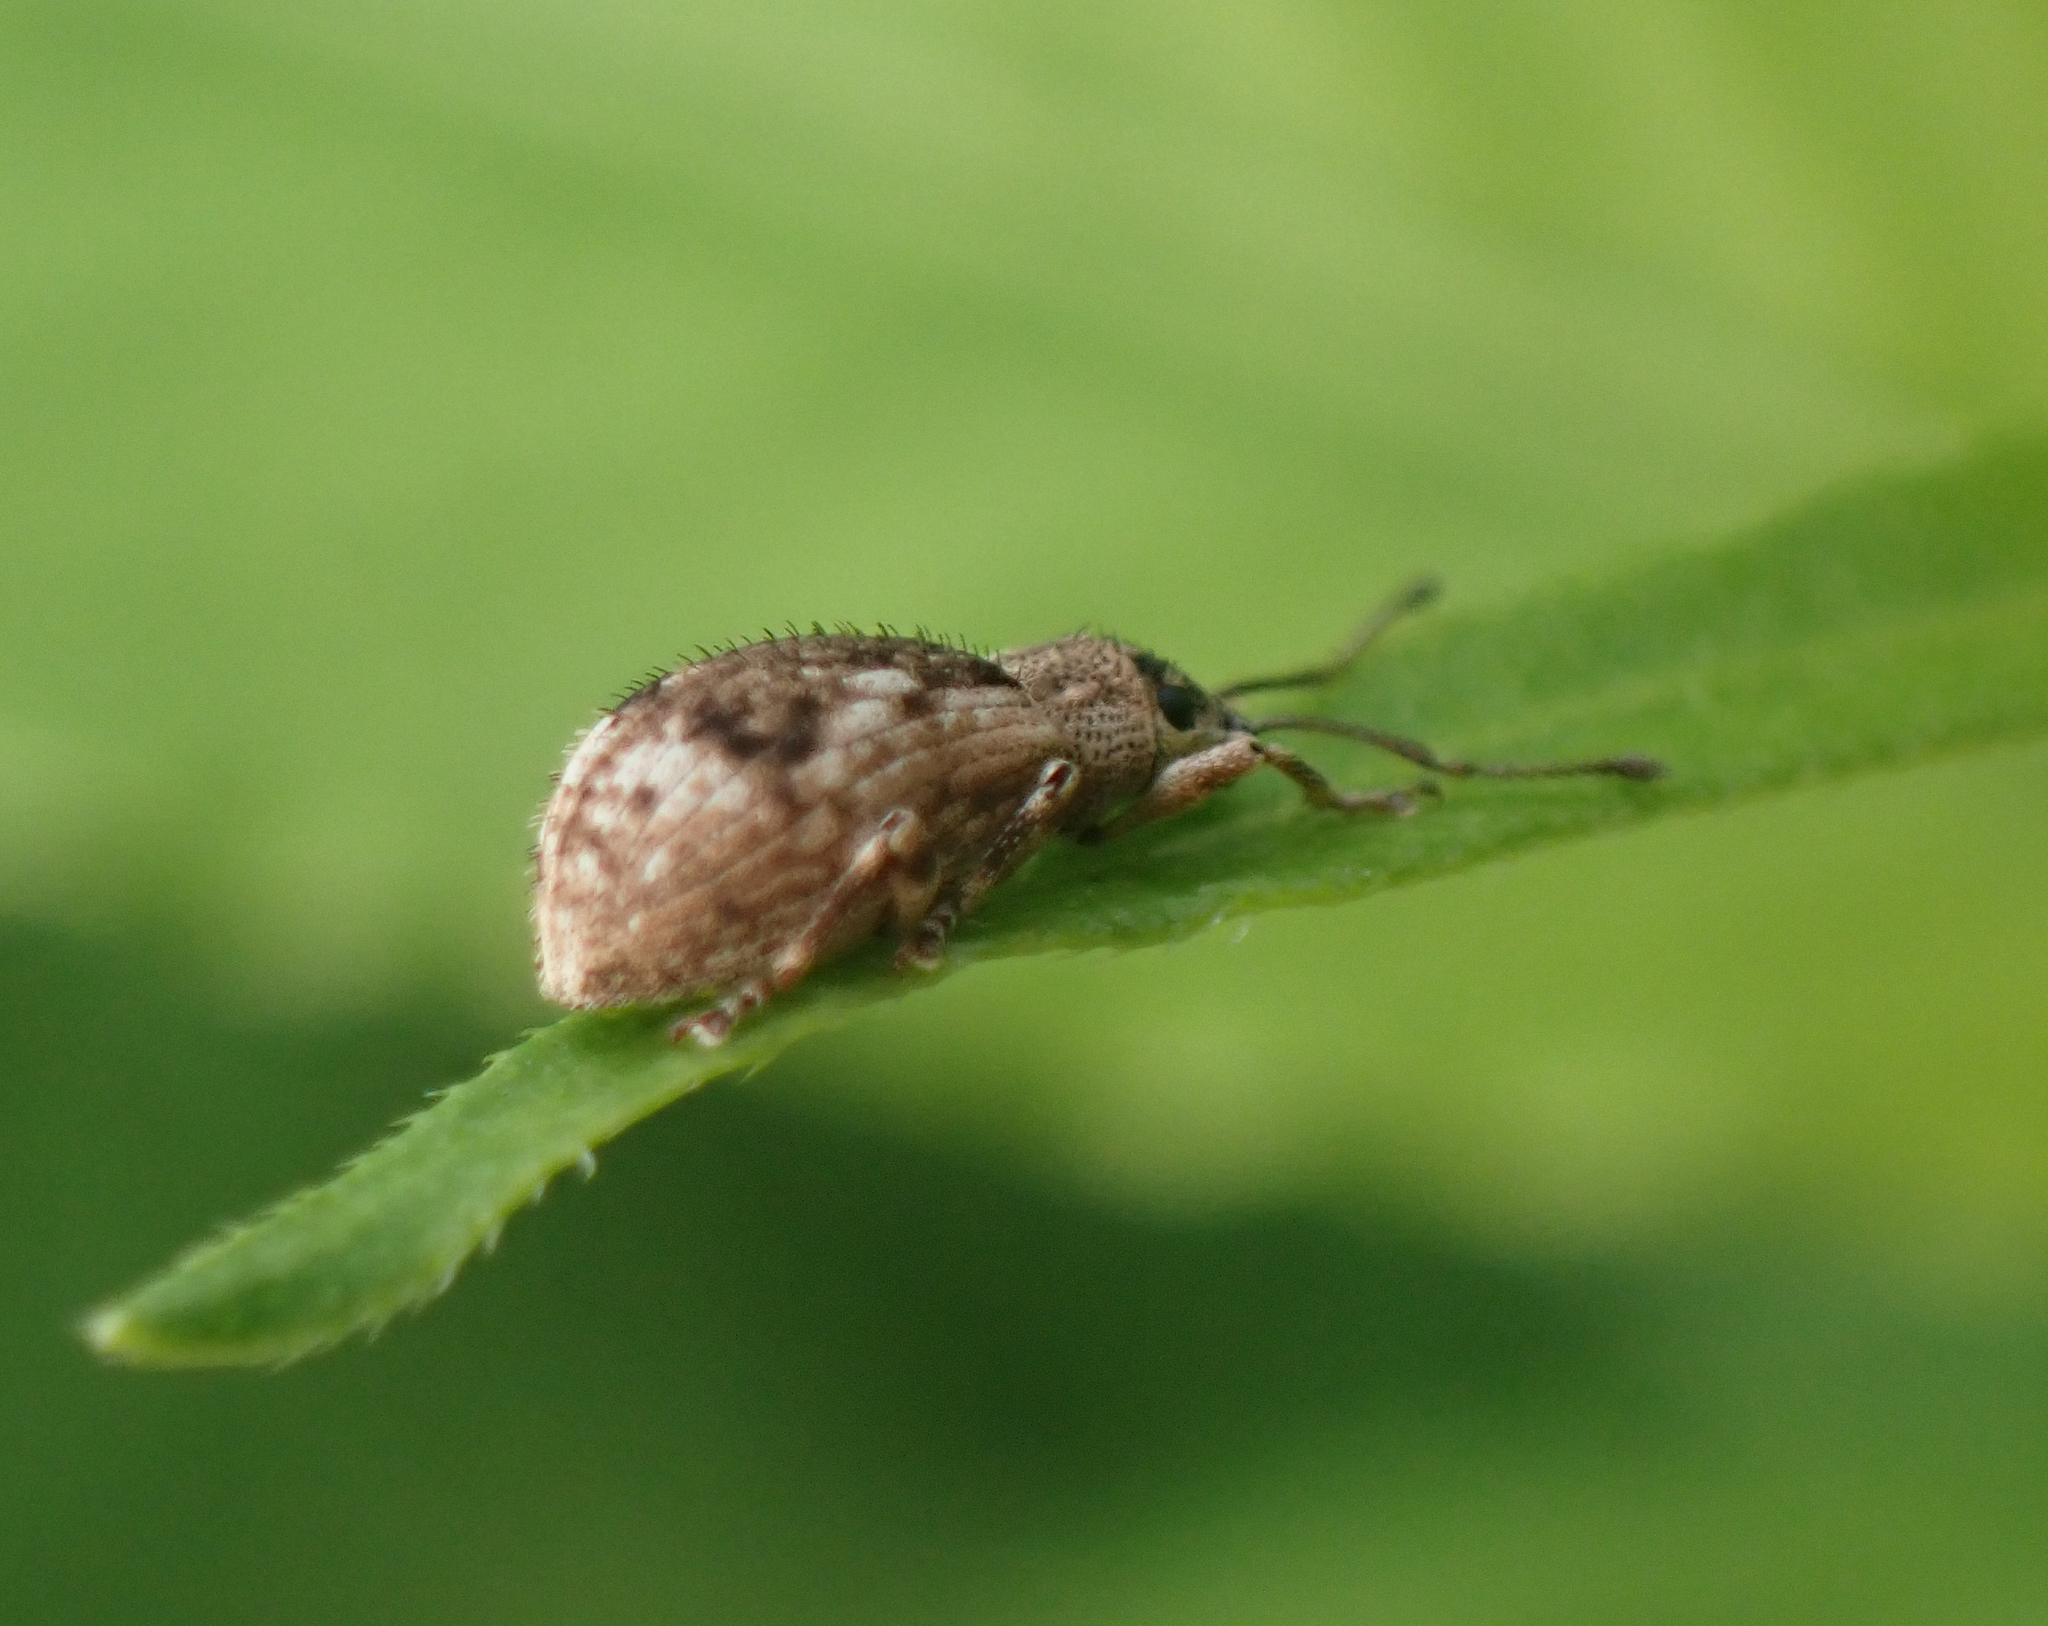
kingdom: Animalia
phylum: Arthropoda
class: Insecta
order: Coleoptera
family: Curculionidae
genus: Pseudoedophrys
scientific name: Pseudoedophrys hilleri
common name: Weevil
